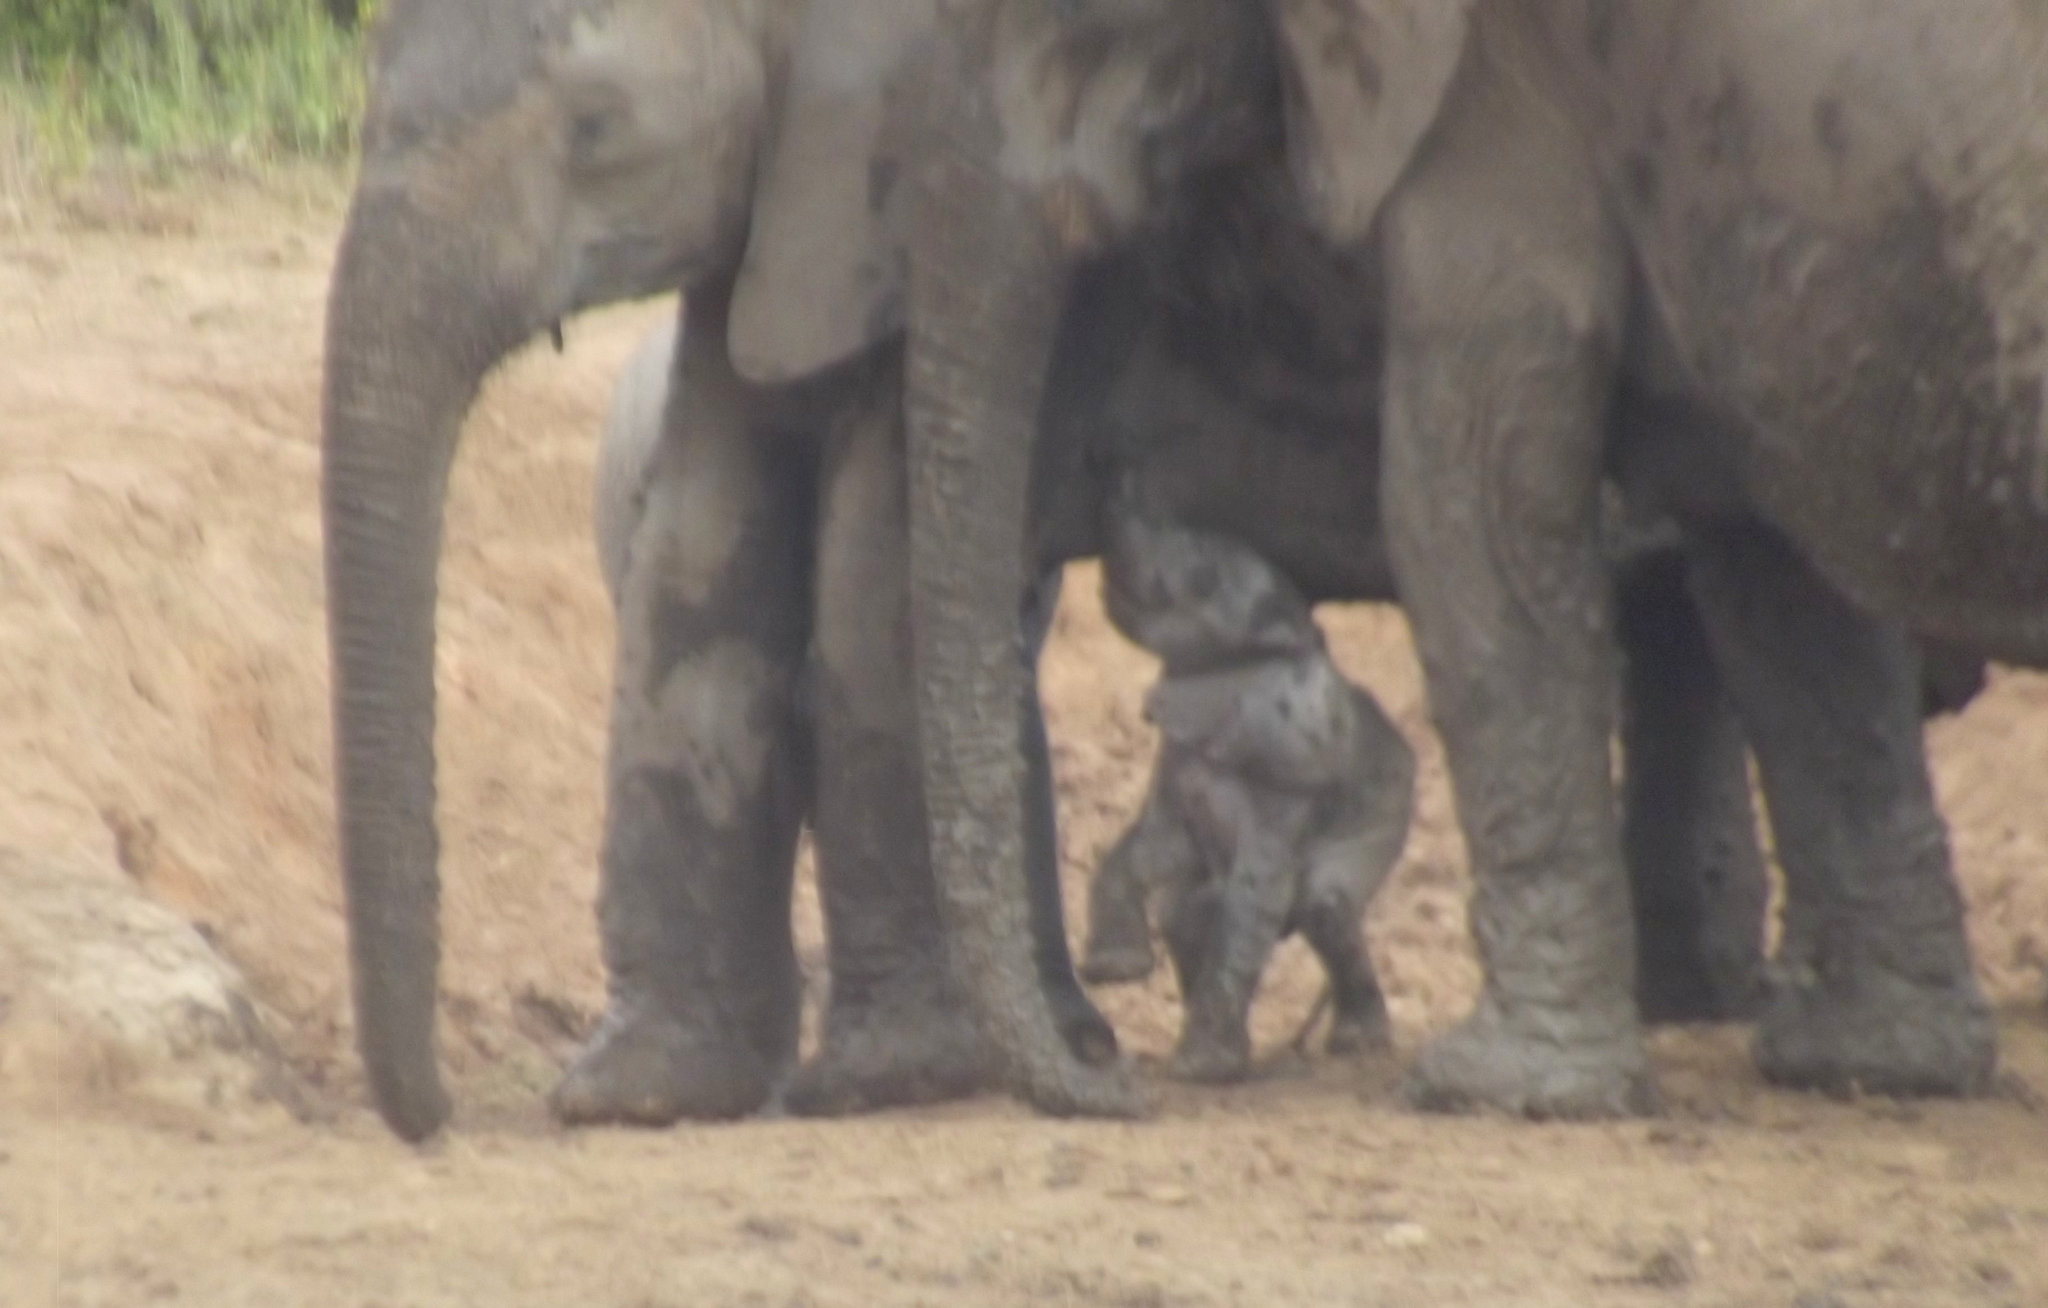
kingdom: Animalia
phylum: Chordata
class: Mammalia
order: Proboscidea
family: Elephantidae
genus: Loxodonta
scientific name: Loxodonta africana
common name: African elephant
